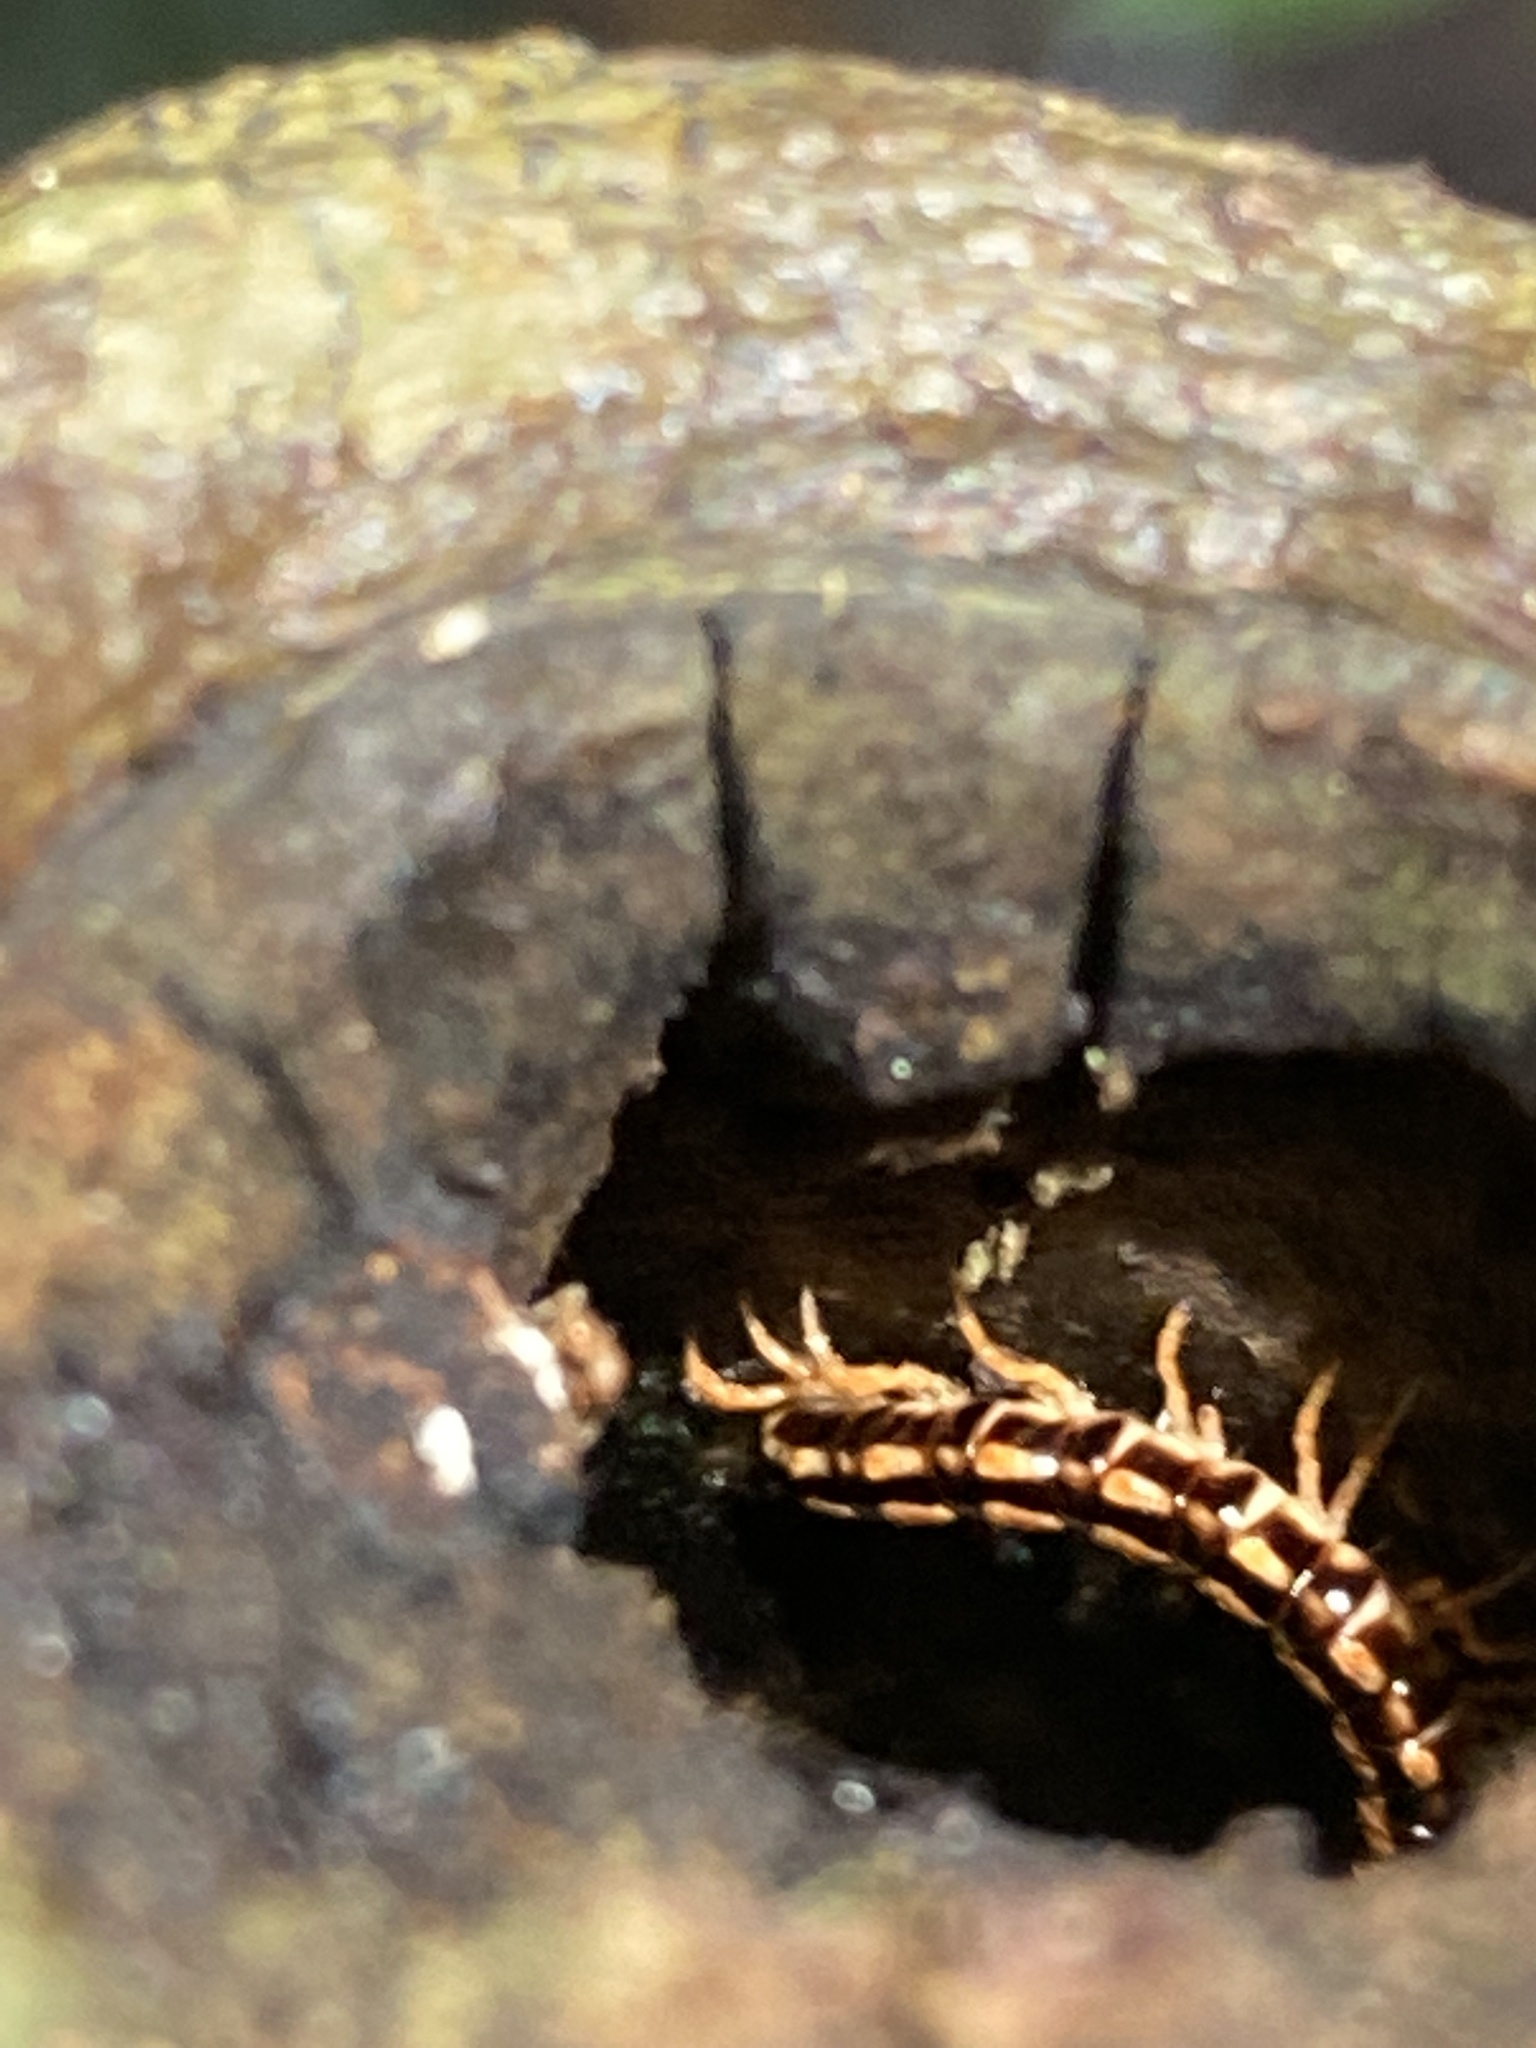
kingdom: Animalia
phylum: Arthropoda
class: Diplopoda
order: Polydesmida
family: Paradoxosomatidae
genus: Helicorthomorpha
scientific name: Helicorthomorpha holstii
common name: Millipede
